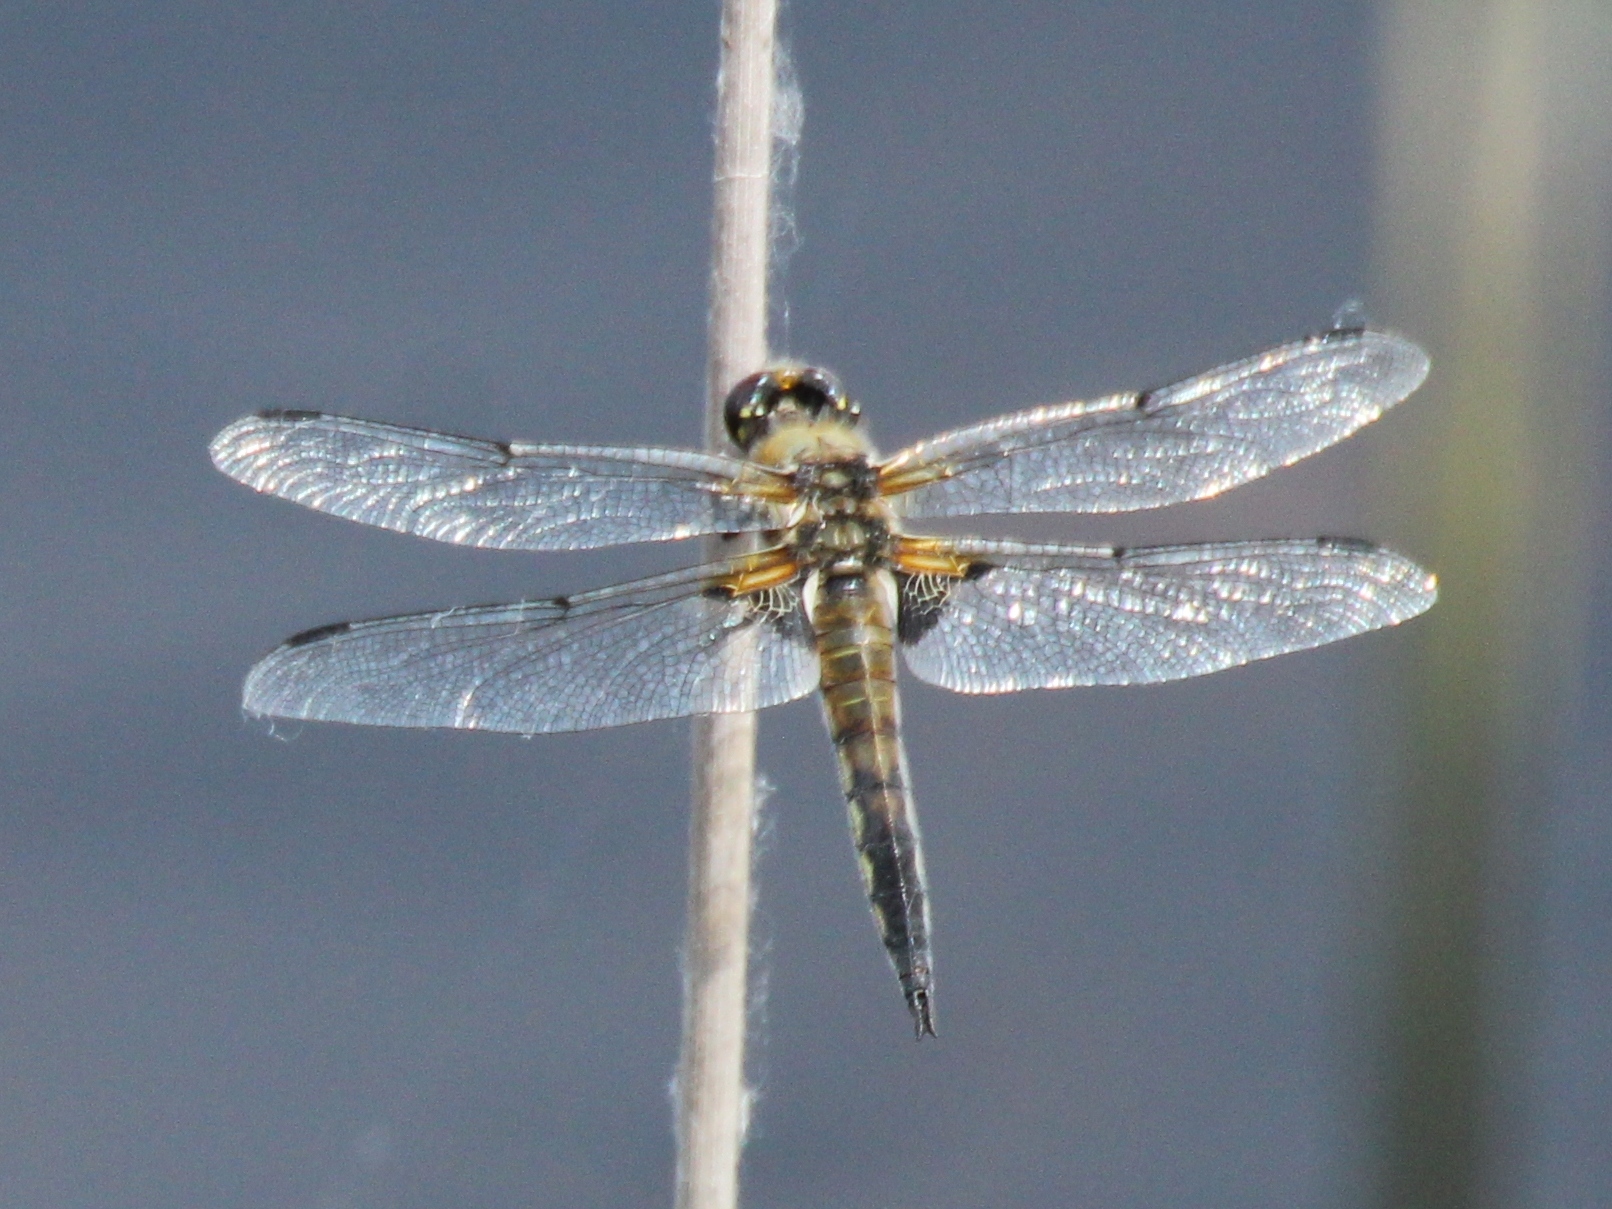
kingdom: Animalia
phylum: Arthropoda
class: Insecta
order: Odonata
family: Libellulidae
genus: Libellula
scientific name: Libellula quadrimaculata
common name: Four-spotted chaser
